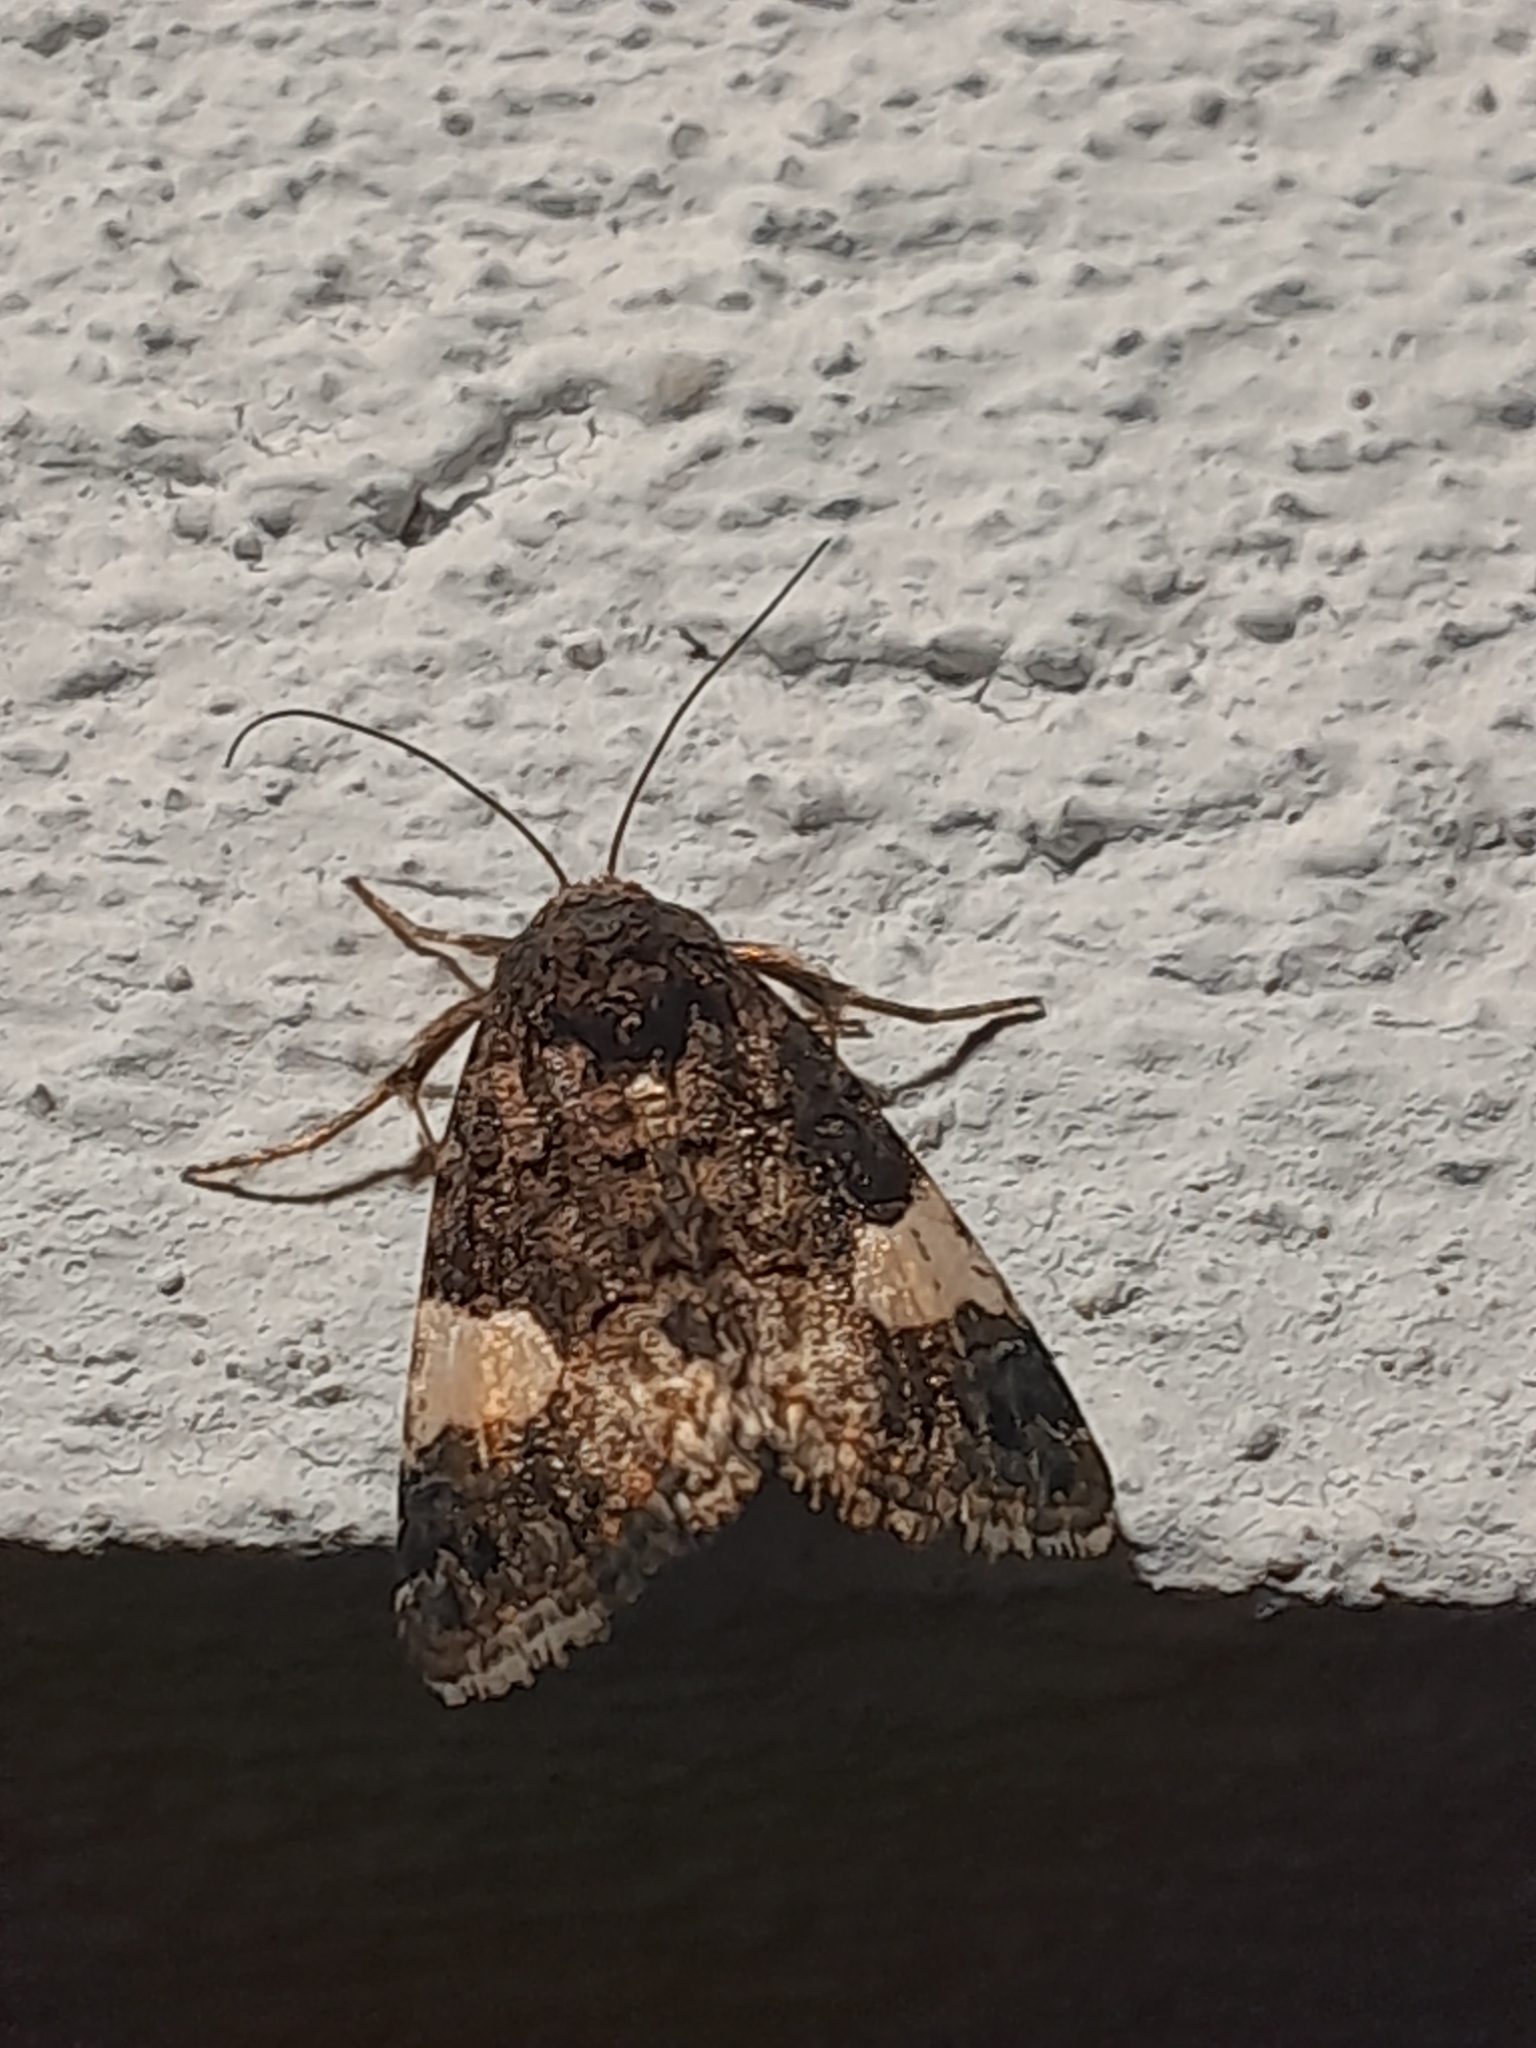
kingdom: Animalia
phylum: Arthropoda
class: Insecta
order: Lepidoptera
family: Noctuidae
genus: Aedia
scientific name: Aedia funesta
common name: The druid
